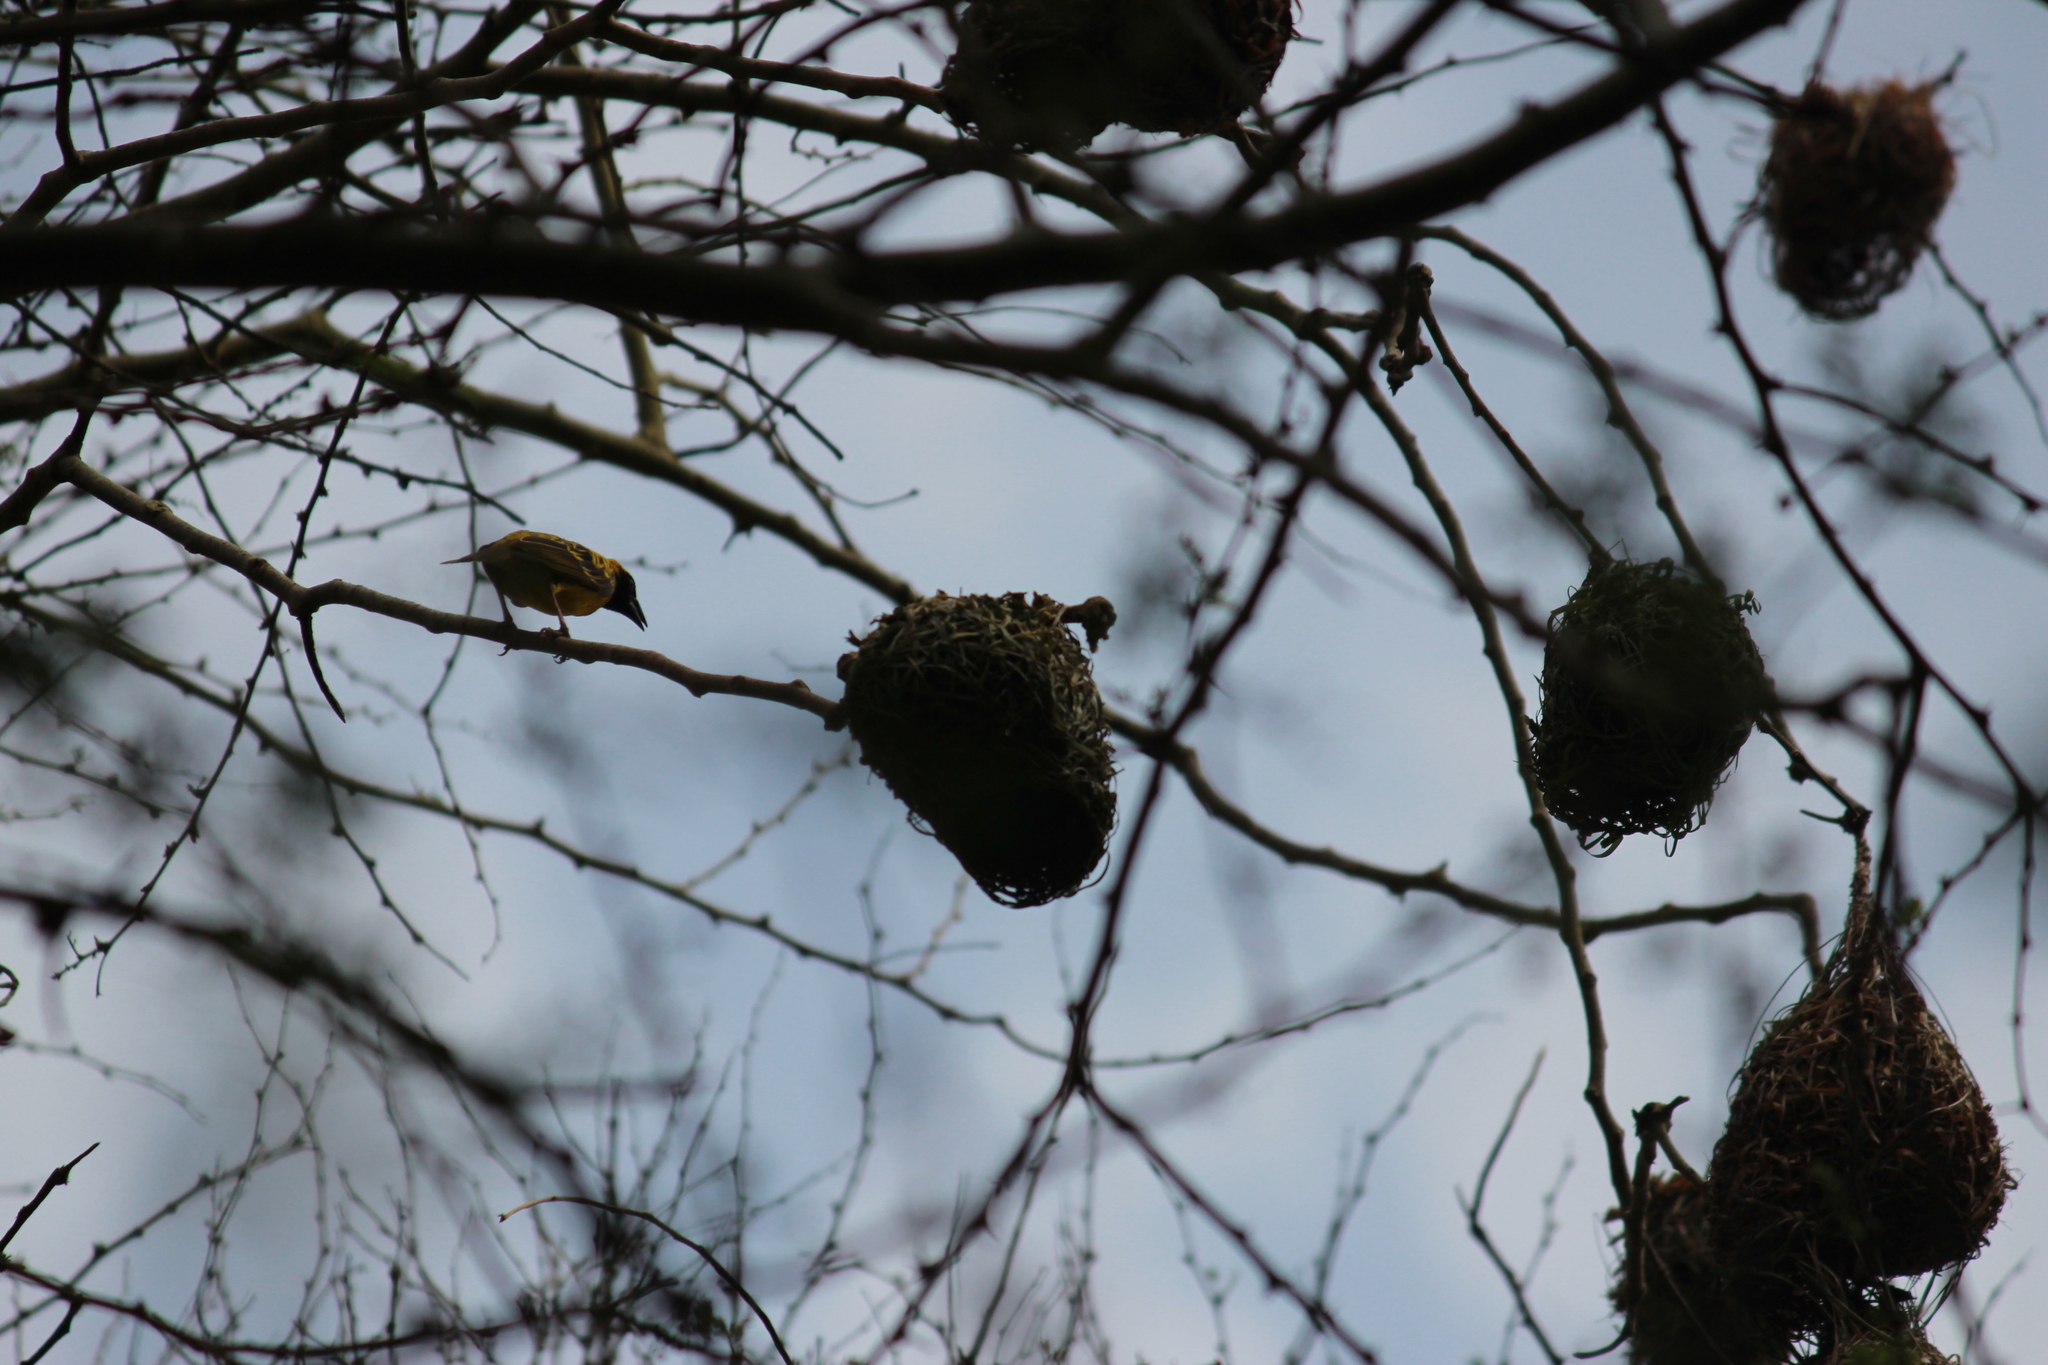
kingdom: Animalia
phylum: Chordata
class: Aves
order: Passeriformes
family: Ploceidae
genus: Ploceus
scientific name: Ploceus cucullatus
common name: Village weaver
